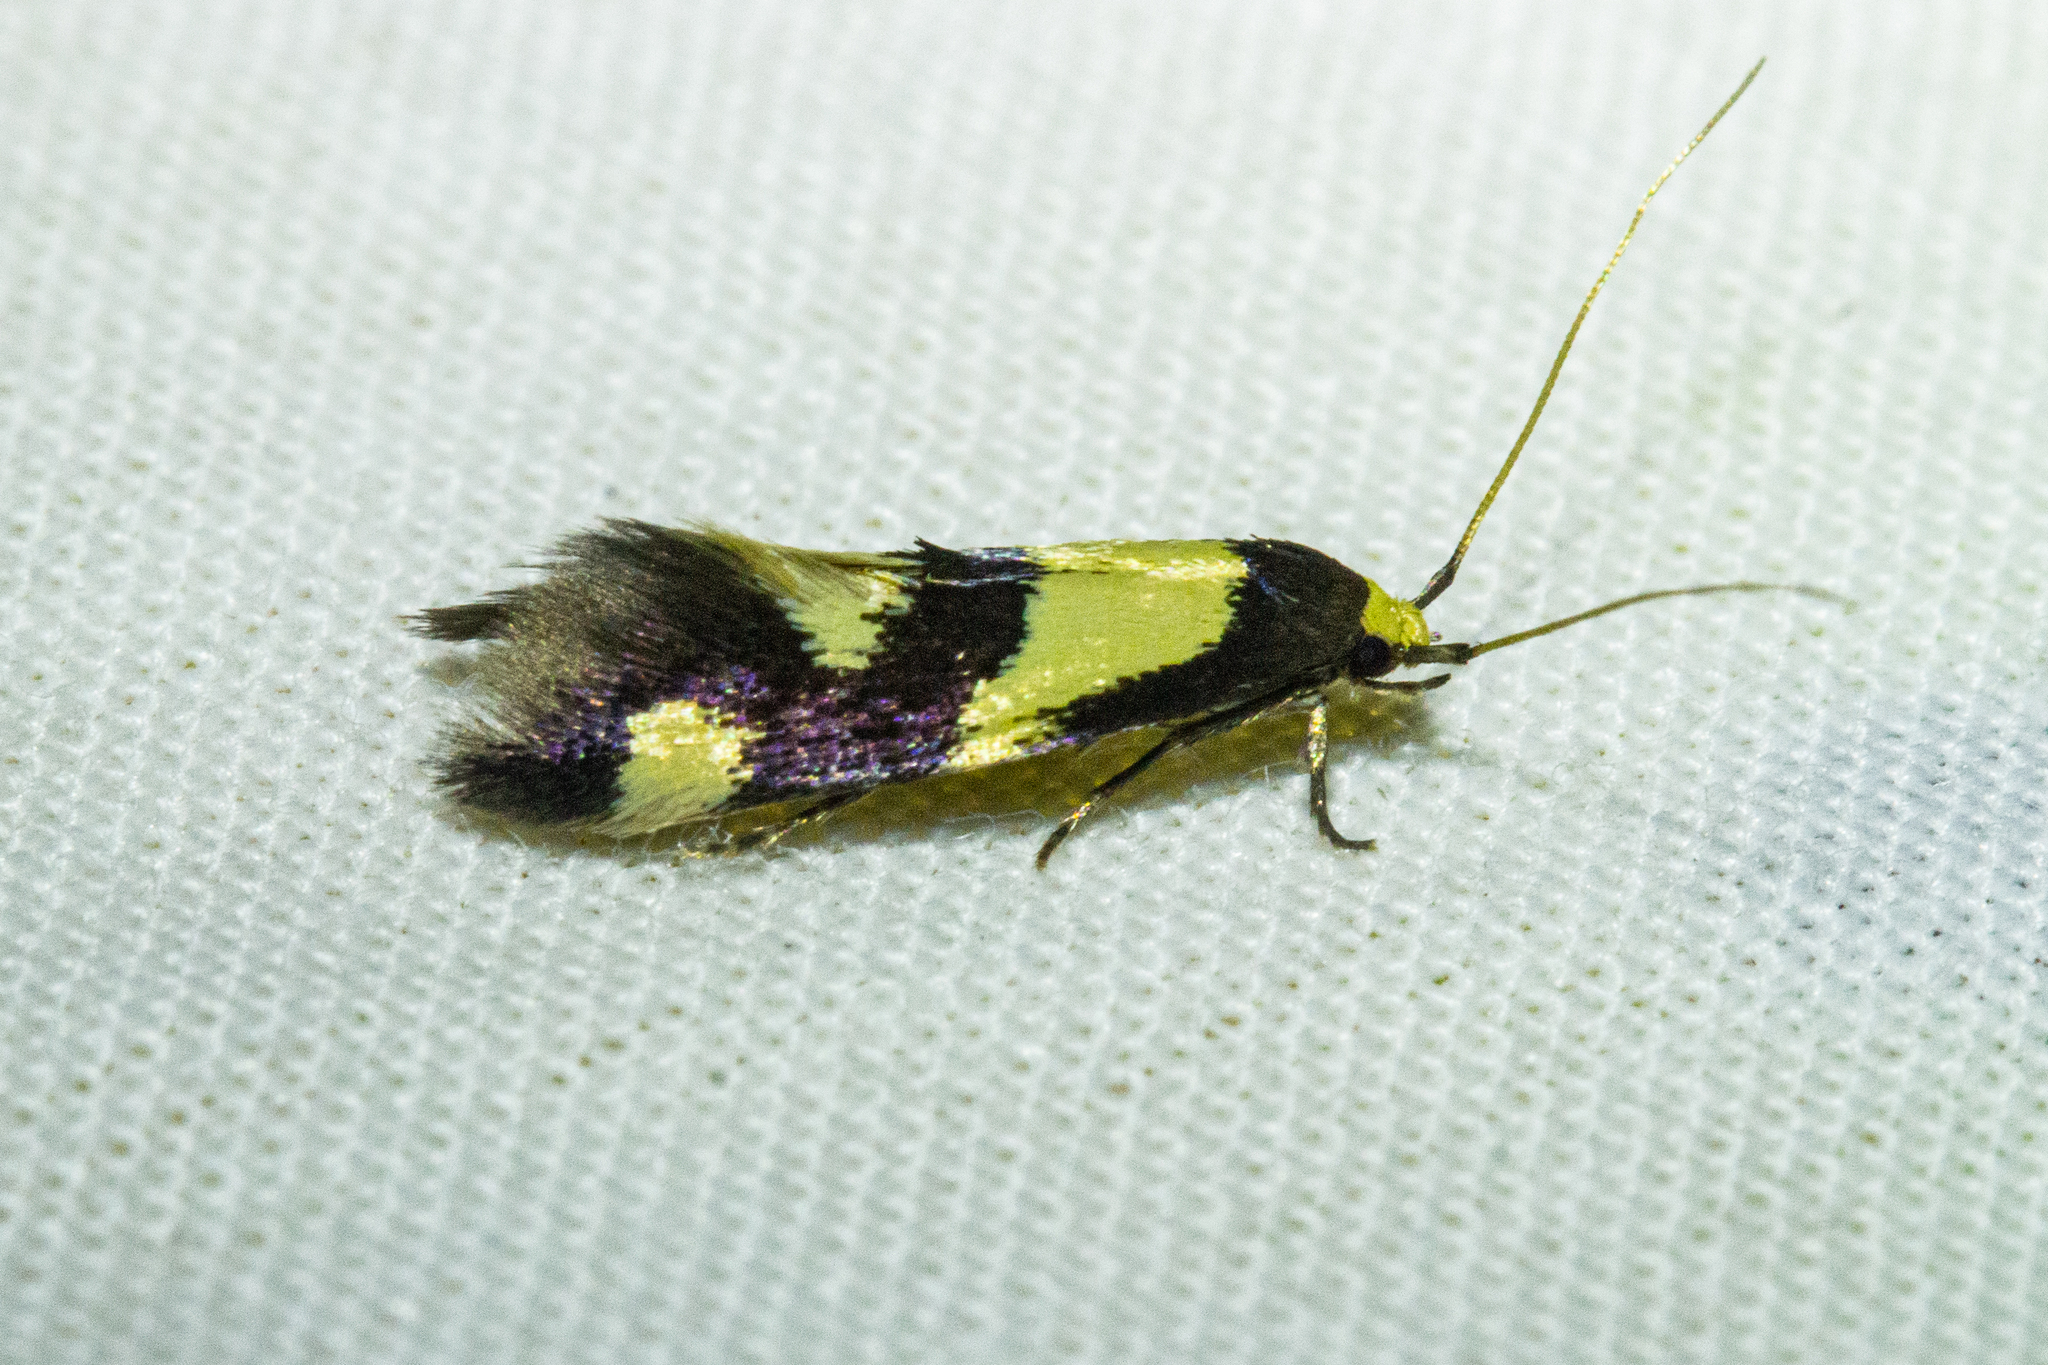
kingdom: Animalia
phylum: Arthropoda
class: Insecta
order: Lepidoptera
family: Tineidae
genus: Opogona
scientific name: Opogona comptella
